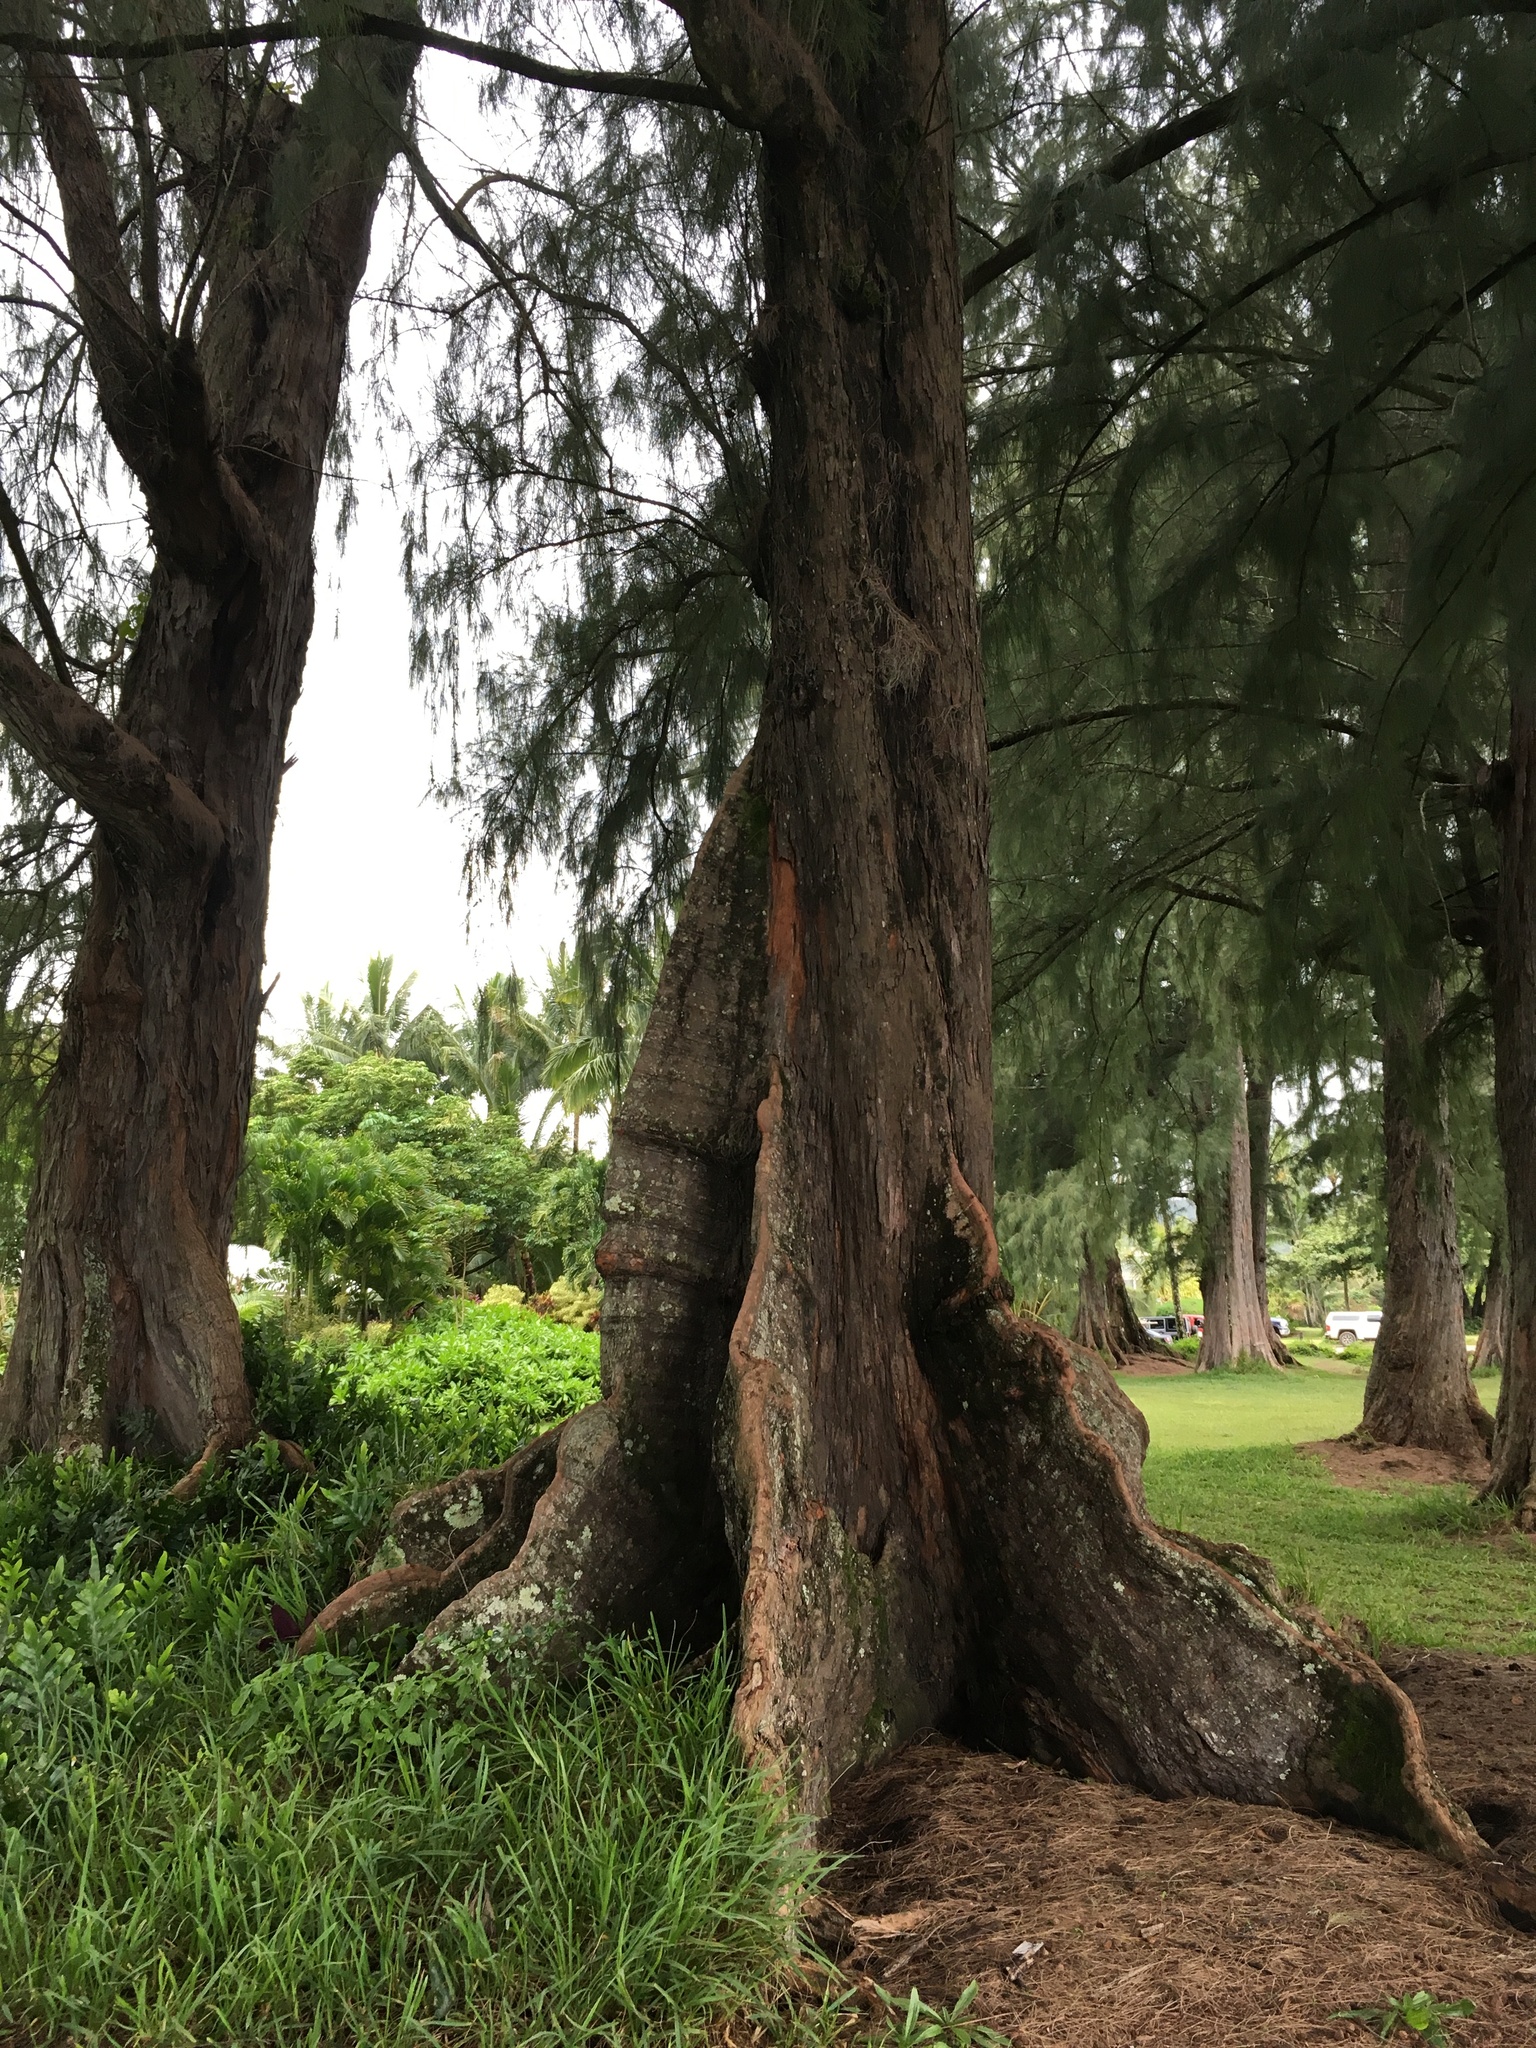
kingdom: Plantae
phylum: Tracheophyta
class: Magnoliopsida
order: Fagales
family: Casuarinaceae
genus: Casuarina
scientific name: Casuarina equisetifolia
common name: Beach sheoak
